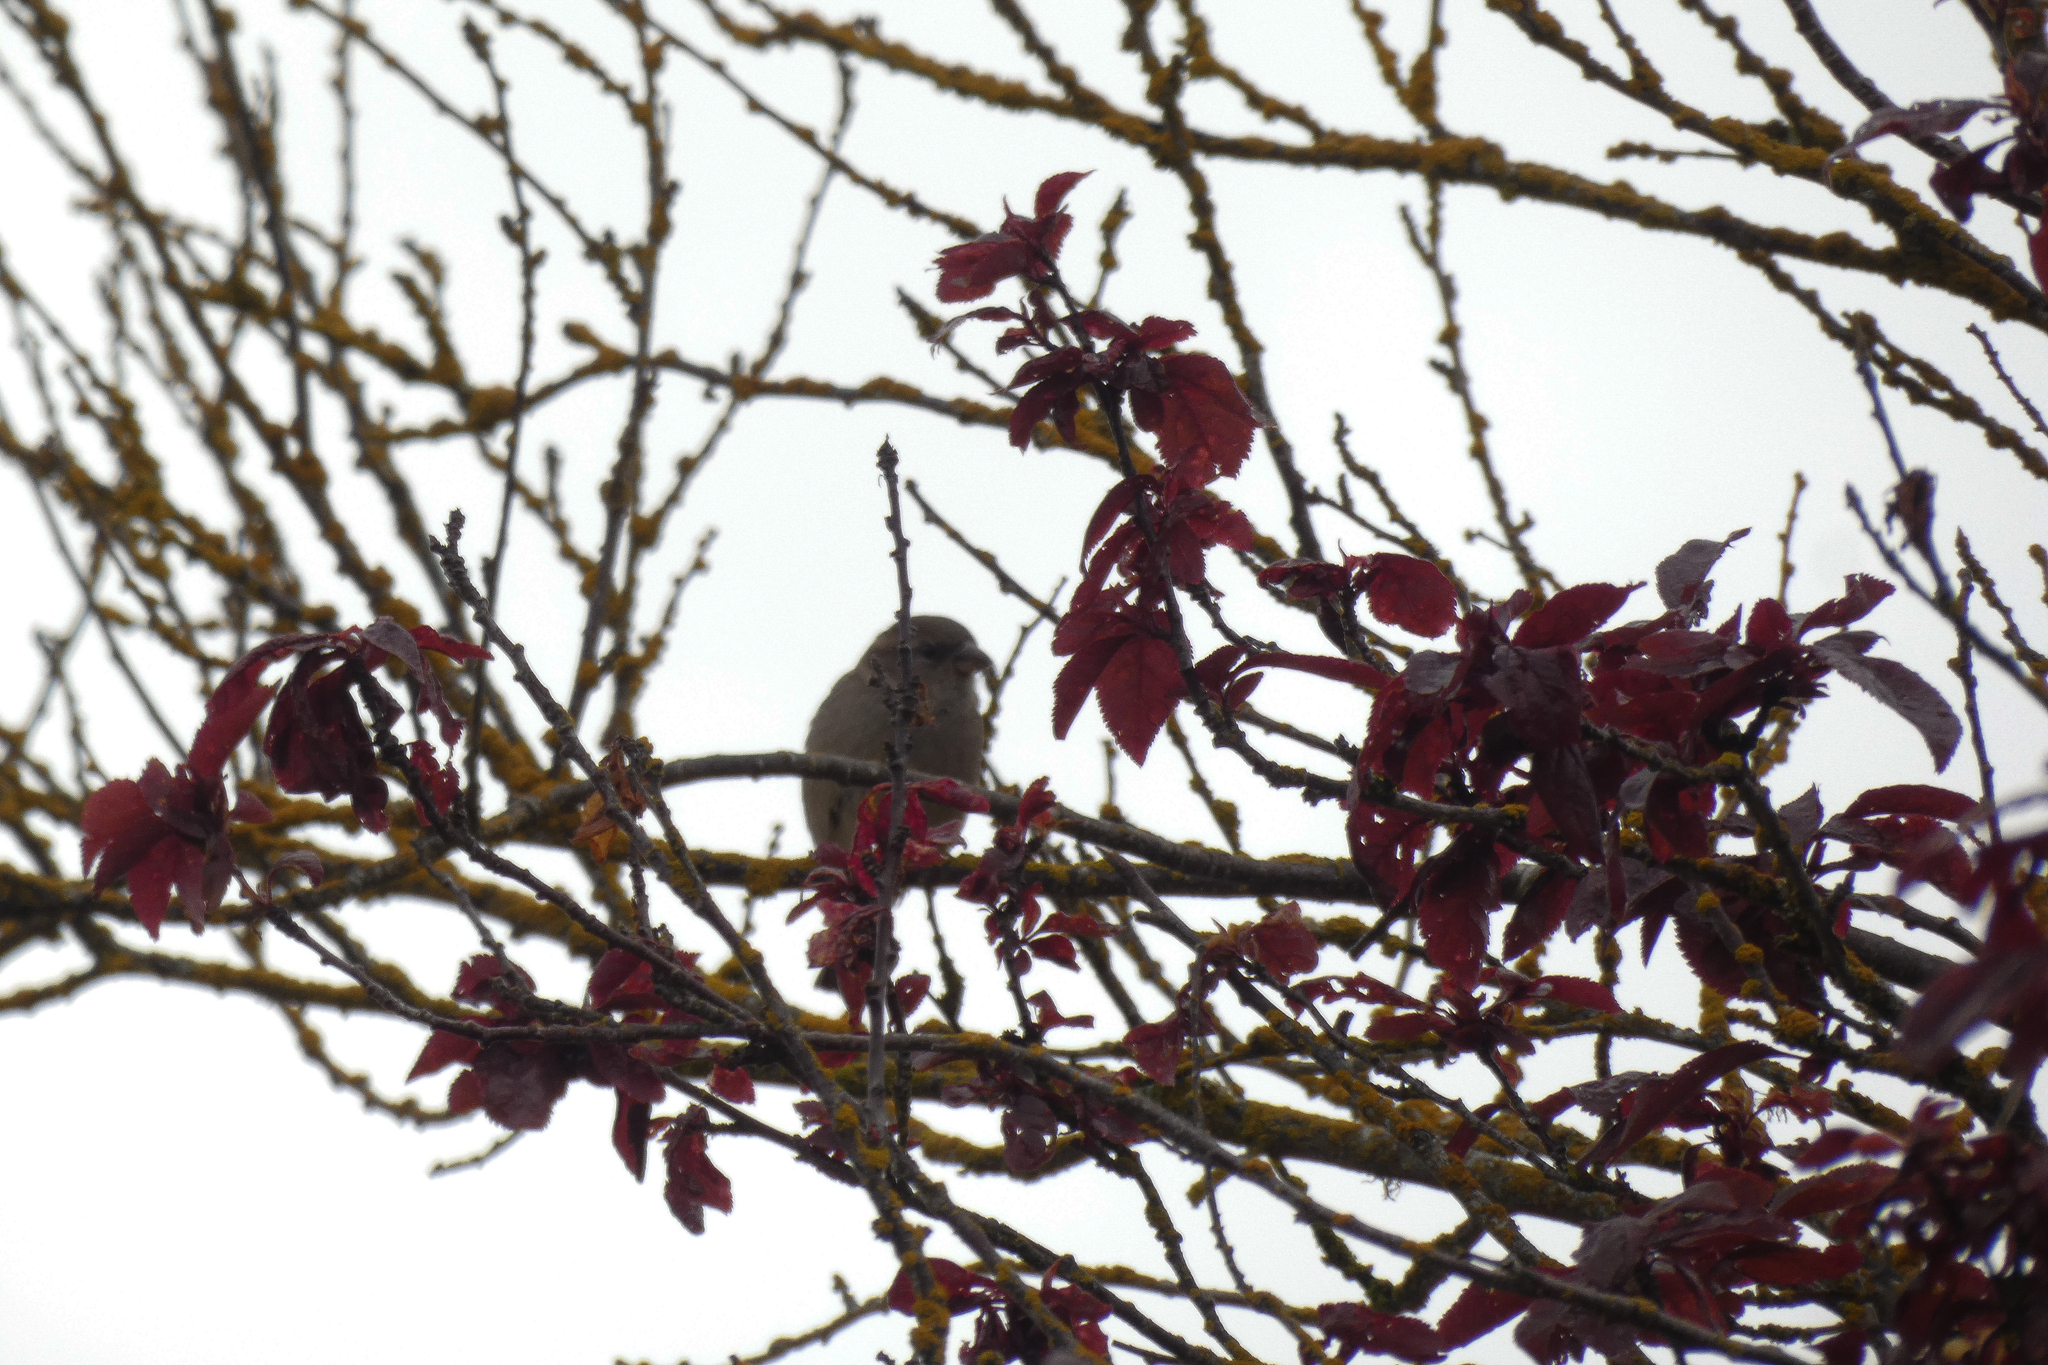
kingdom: Animalia
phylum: Chordata
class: Aves
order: Passeriformes
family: Passeridae
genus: Passer
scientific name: Passer domesticus
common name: House sparrow
